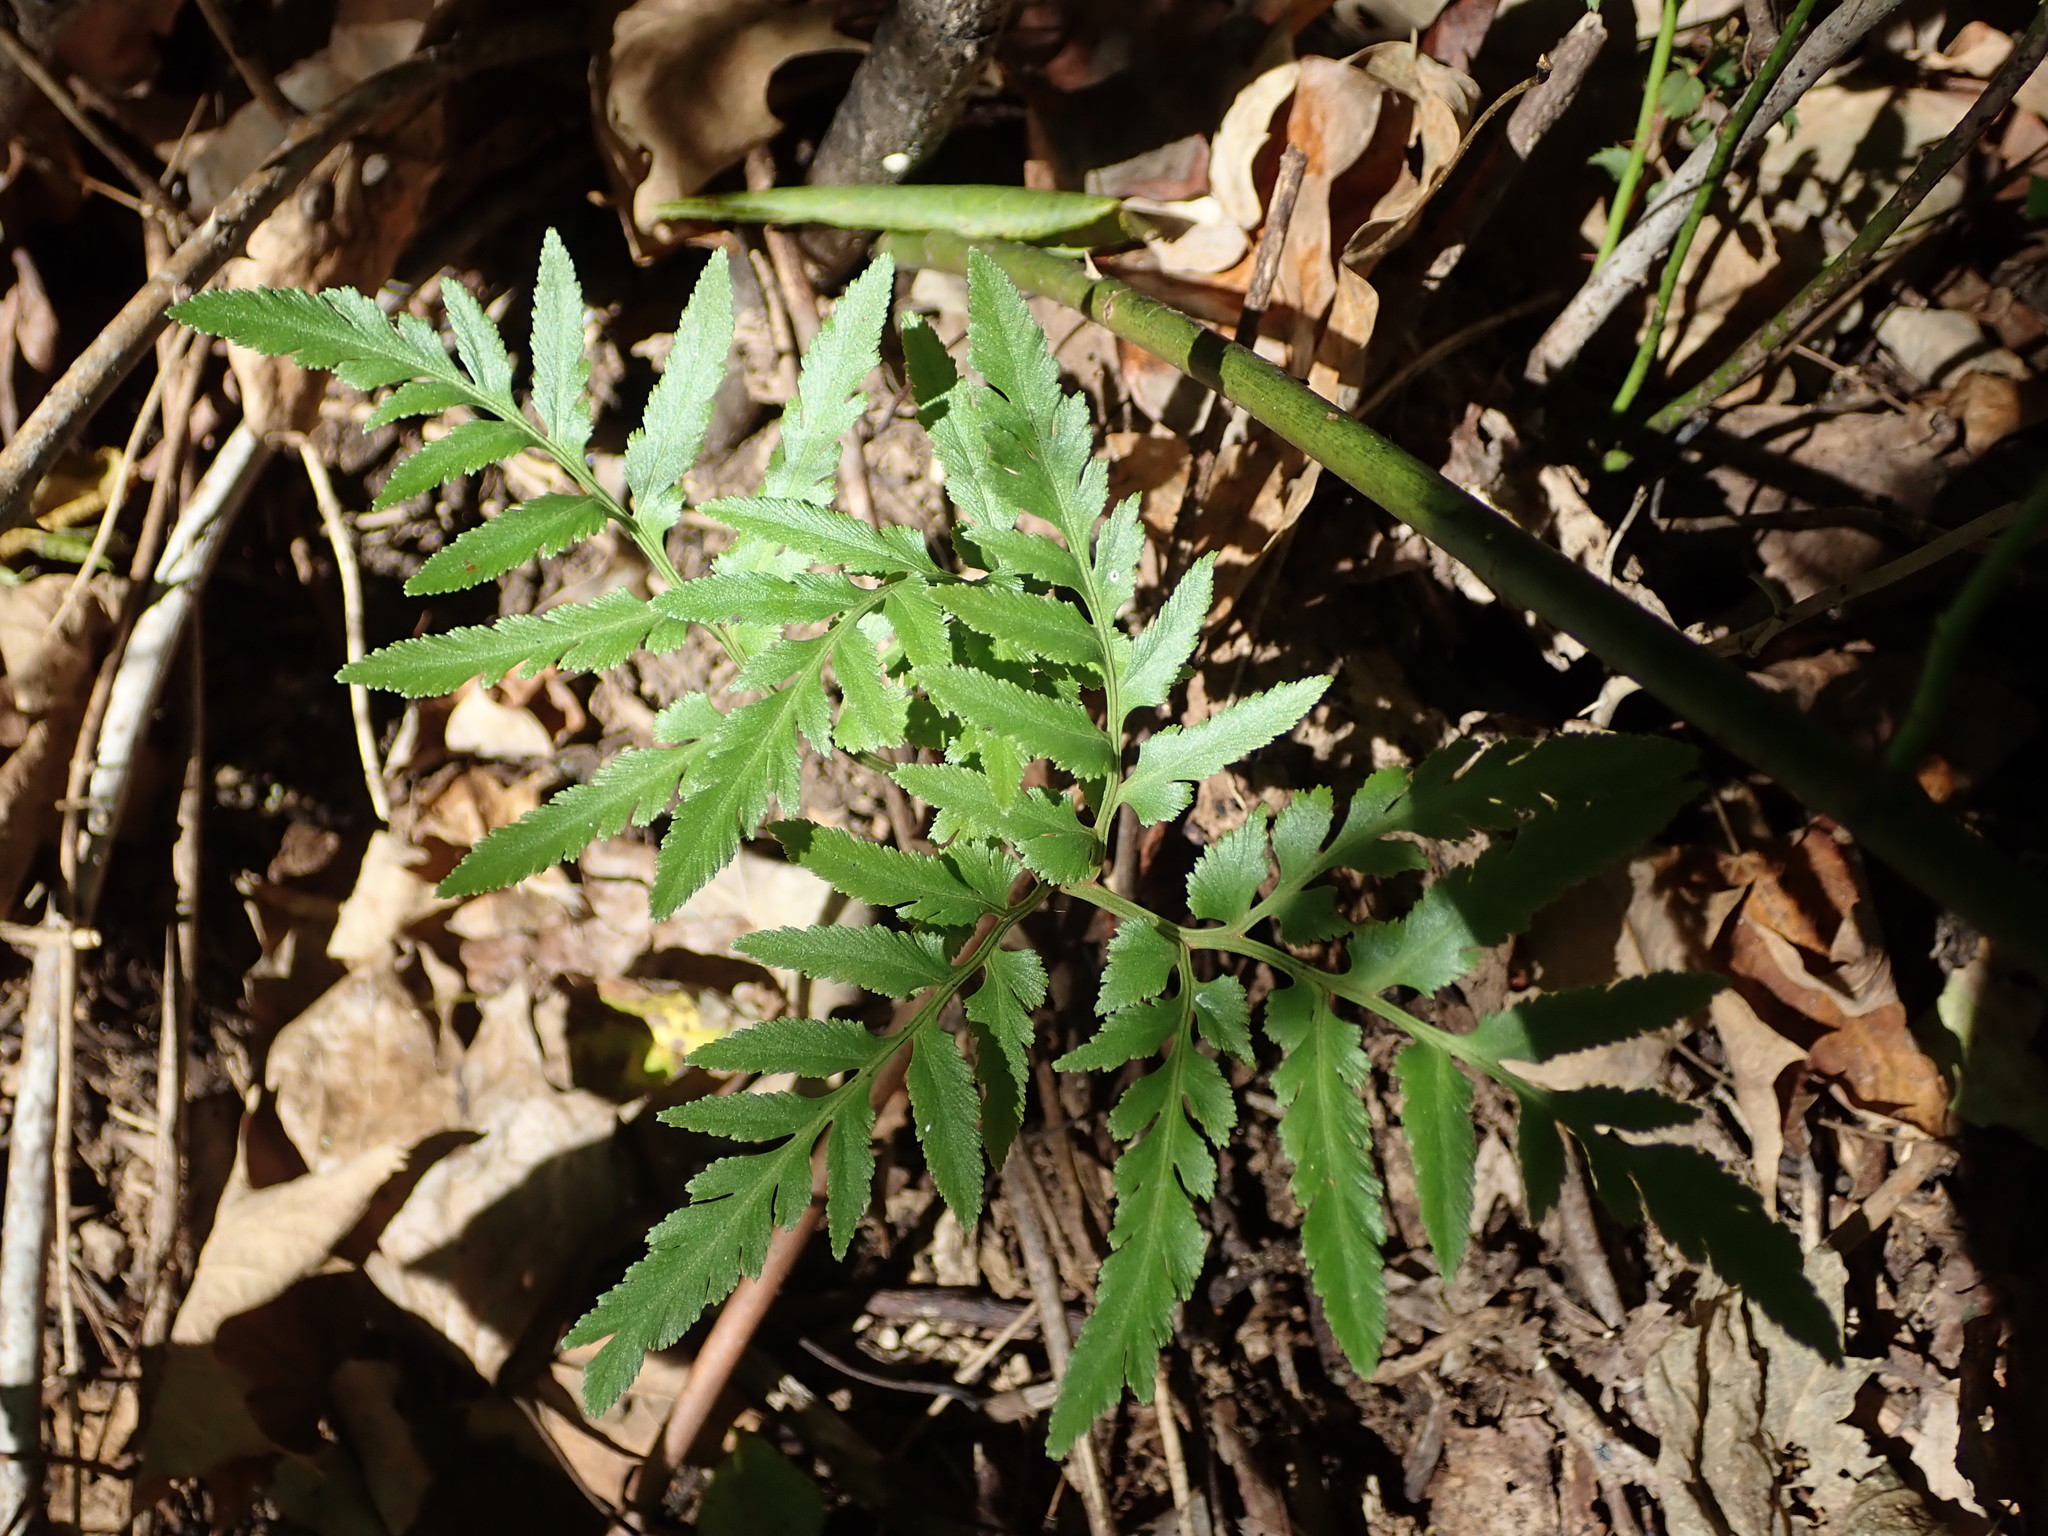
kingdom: Plantae
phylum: Tracheophyta
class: Polypodiopsida
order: Ophioglossales
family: Ophioglossaceae
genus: Sceptridium
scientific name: Sceptridium dissectum
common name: Cut-leaved grapefern
